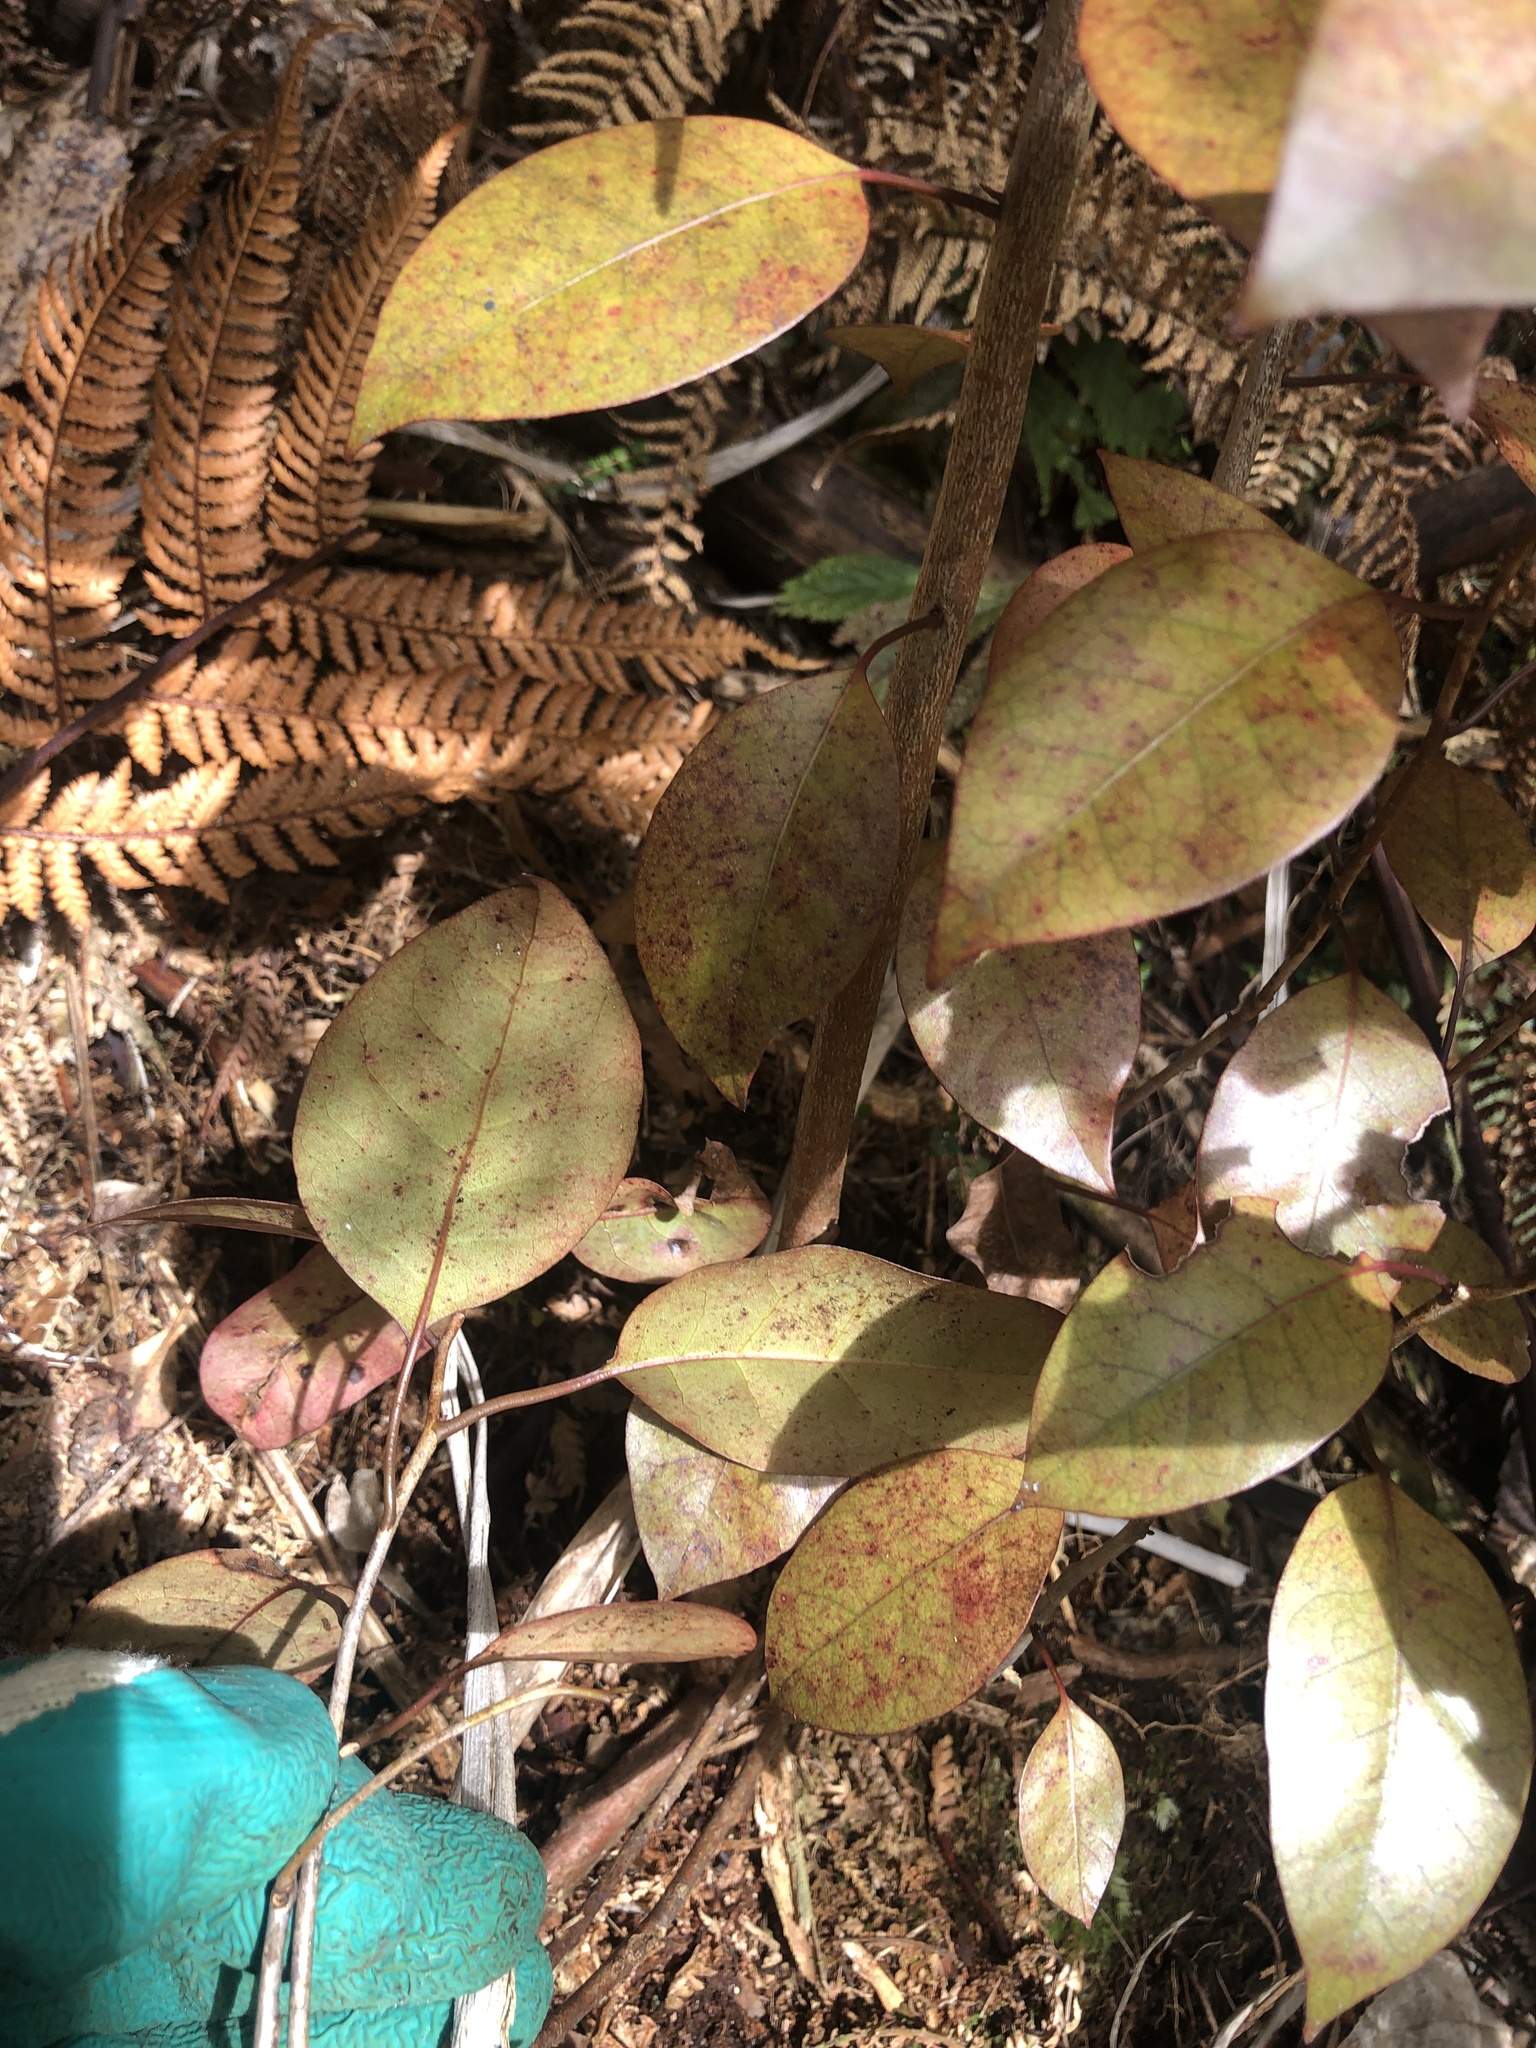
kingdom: Plantae
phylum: Tracheophyta
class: Magnoliopsida
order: Laurales
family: Lauraceae
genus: Litsea
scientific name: Litsea calicaris
